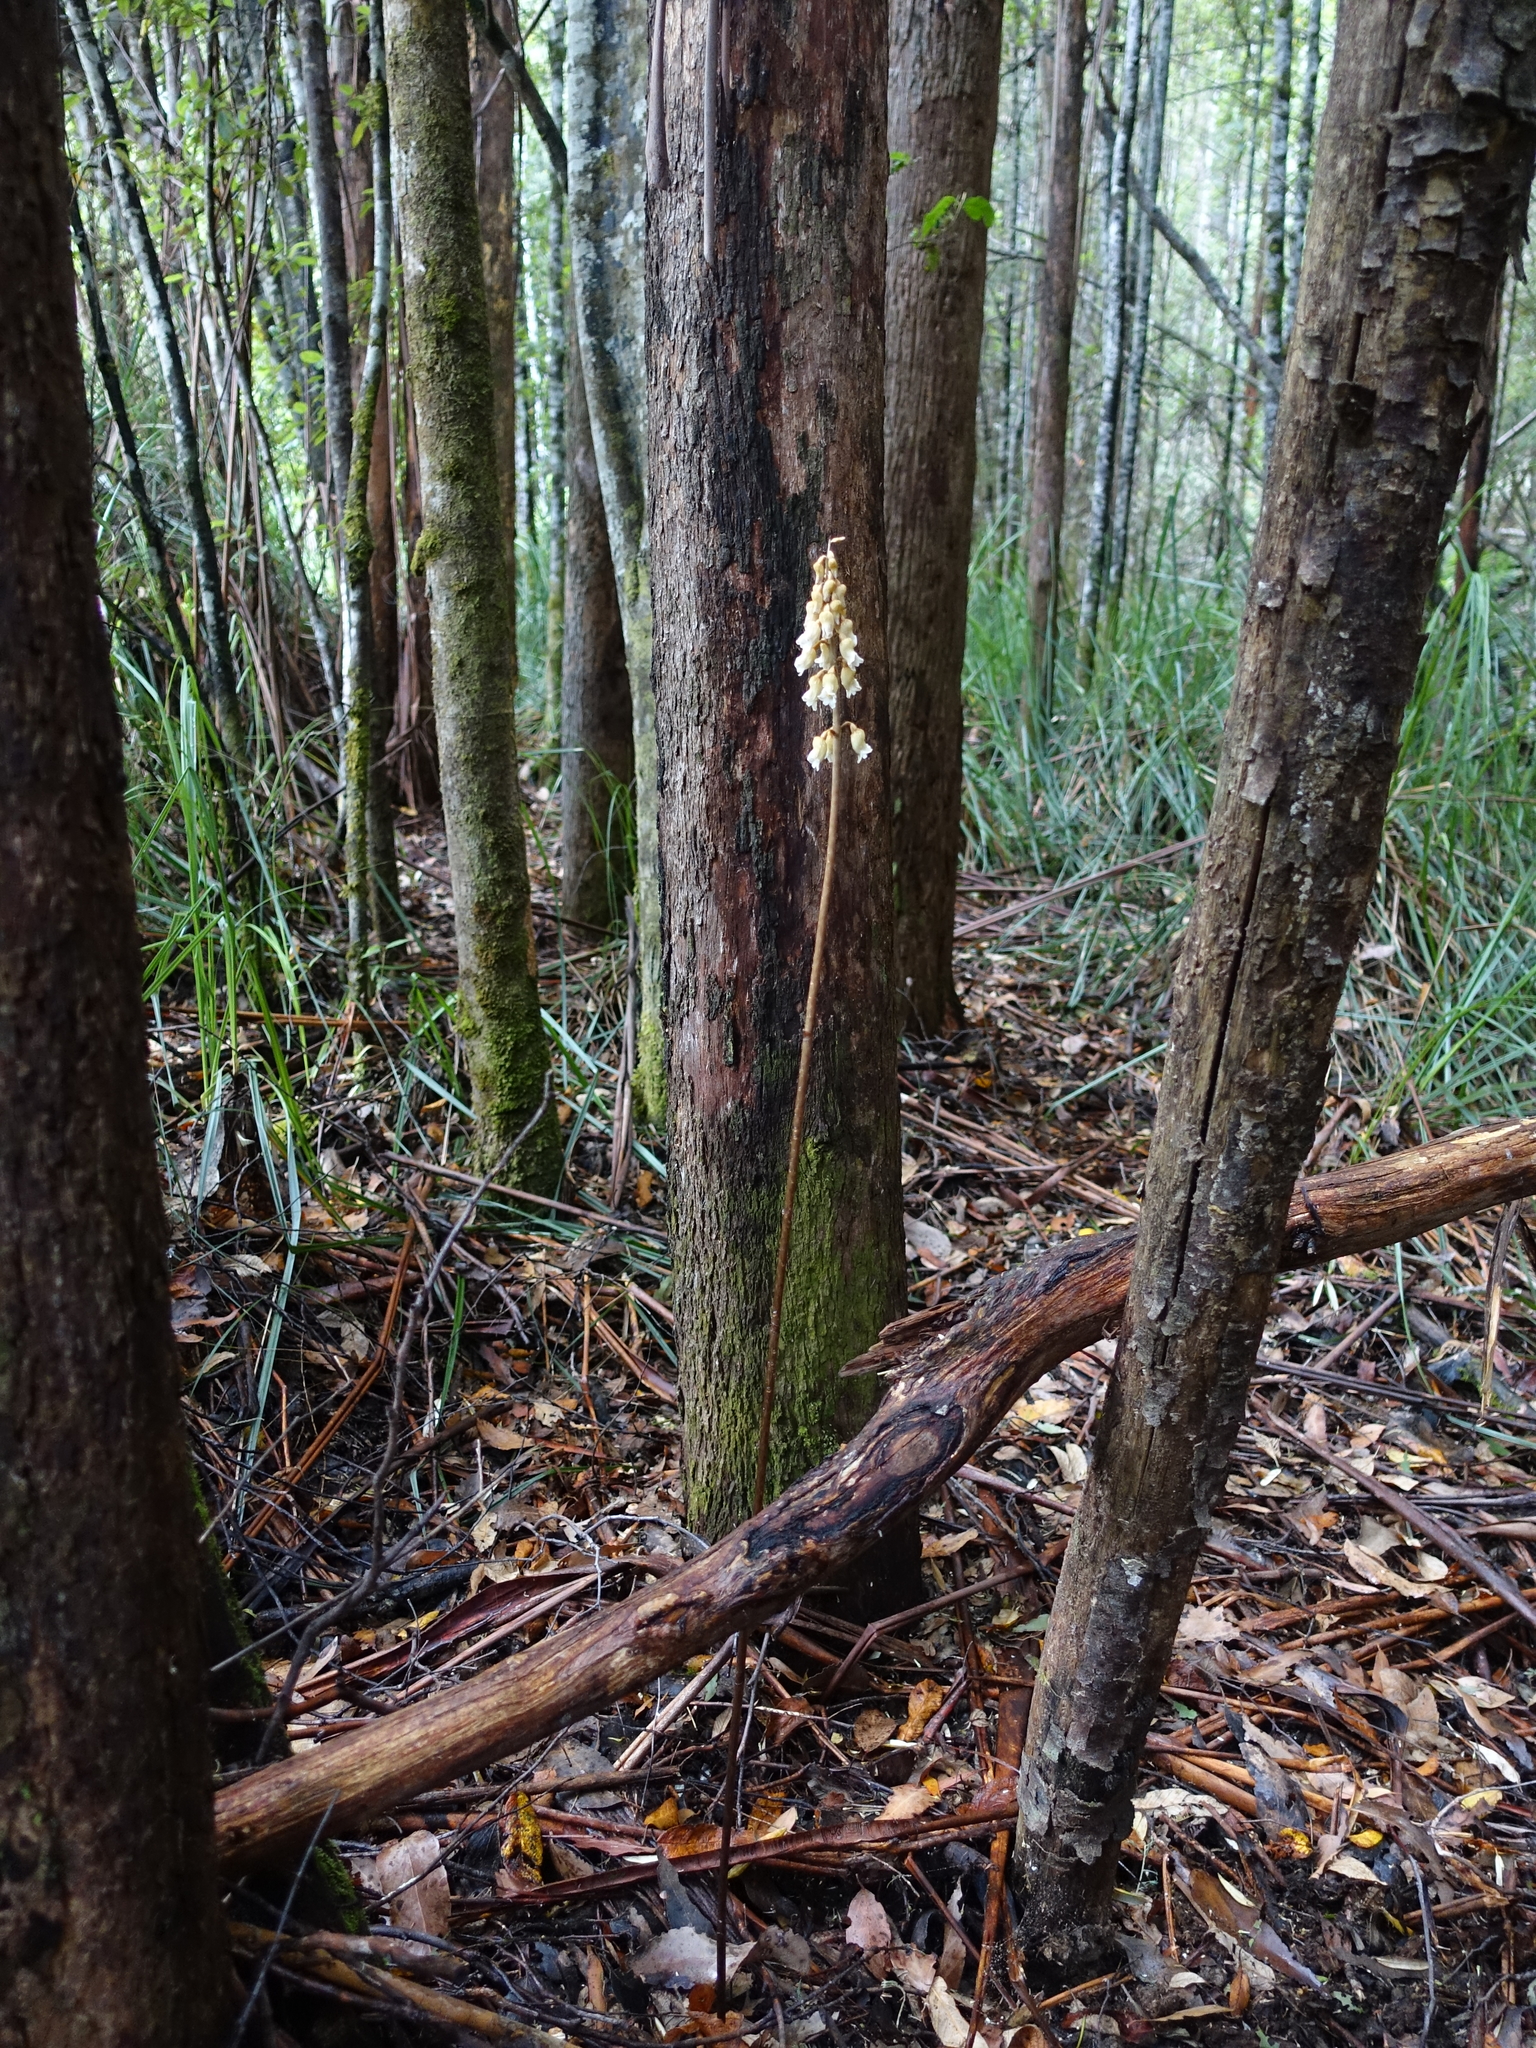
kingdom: Plantae
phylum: Tracheophyta
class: Liliopsida
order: Asparagales
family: Orchidaceae
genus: Gastrodia
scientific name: Gastrodia procera
